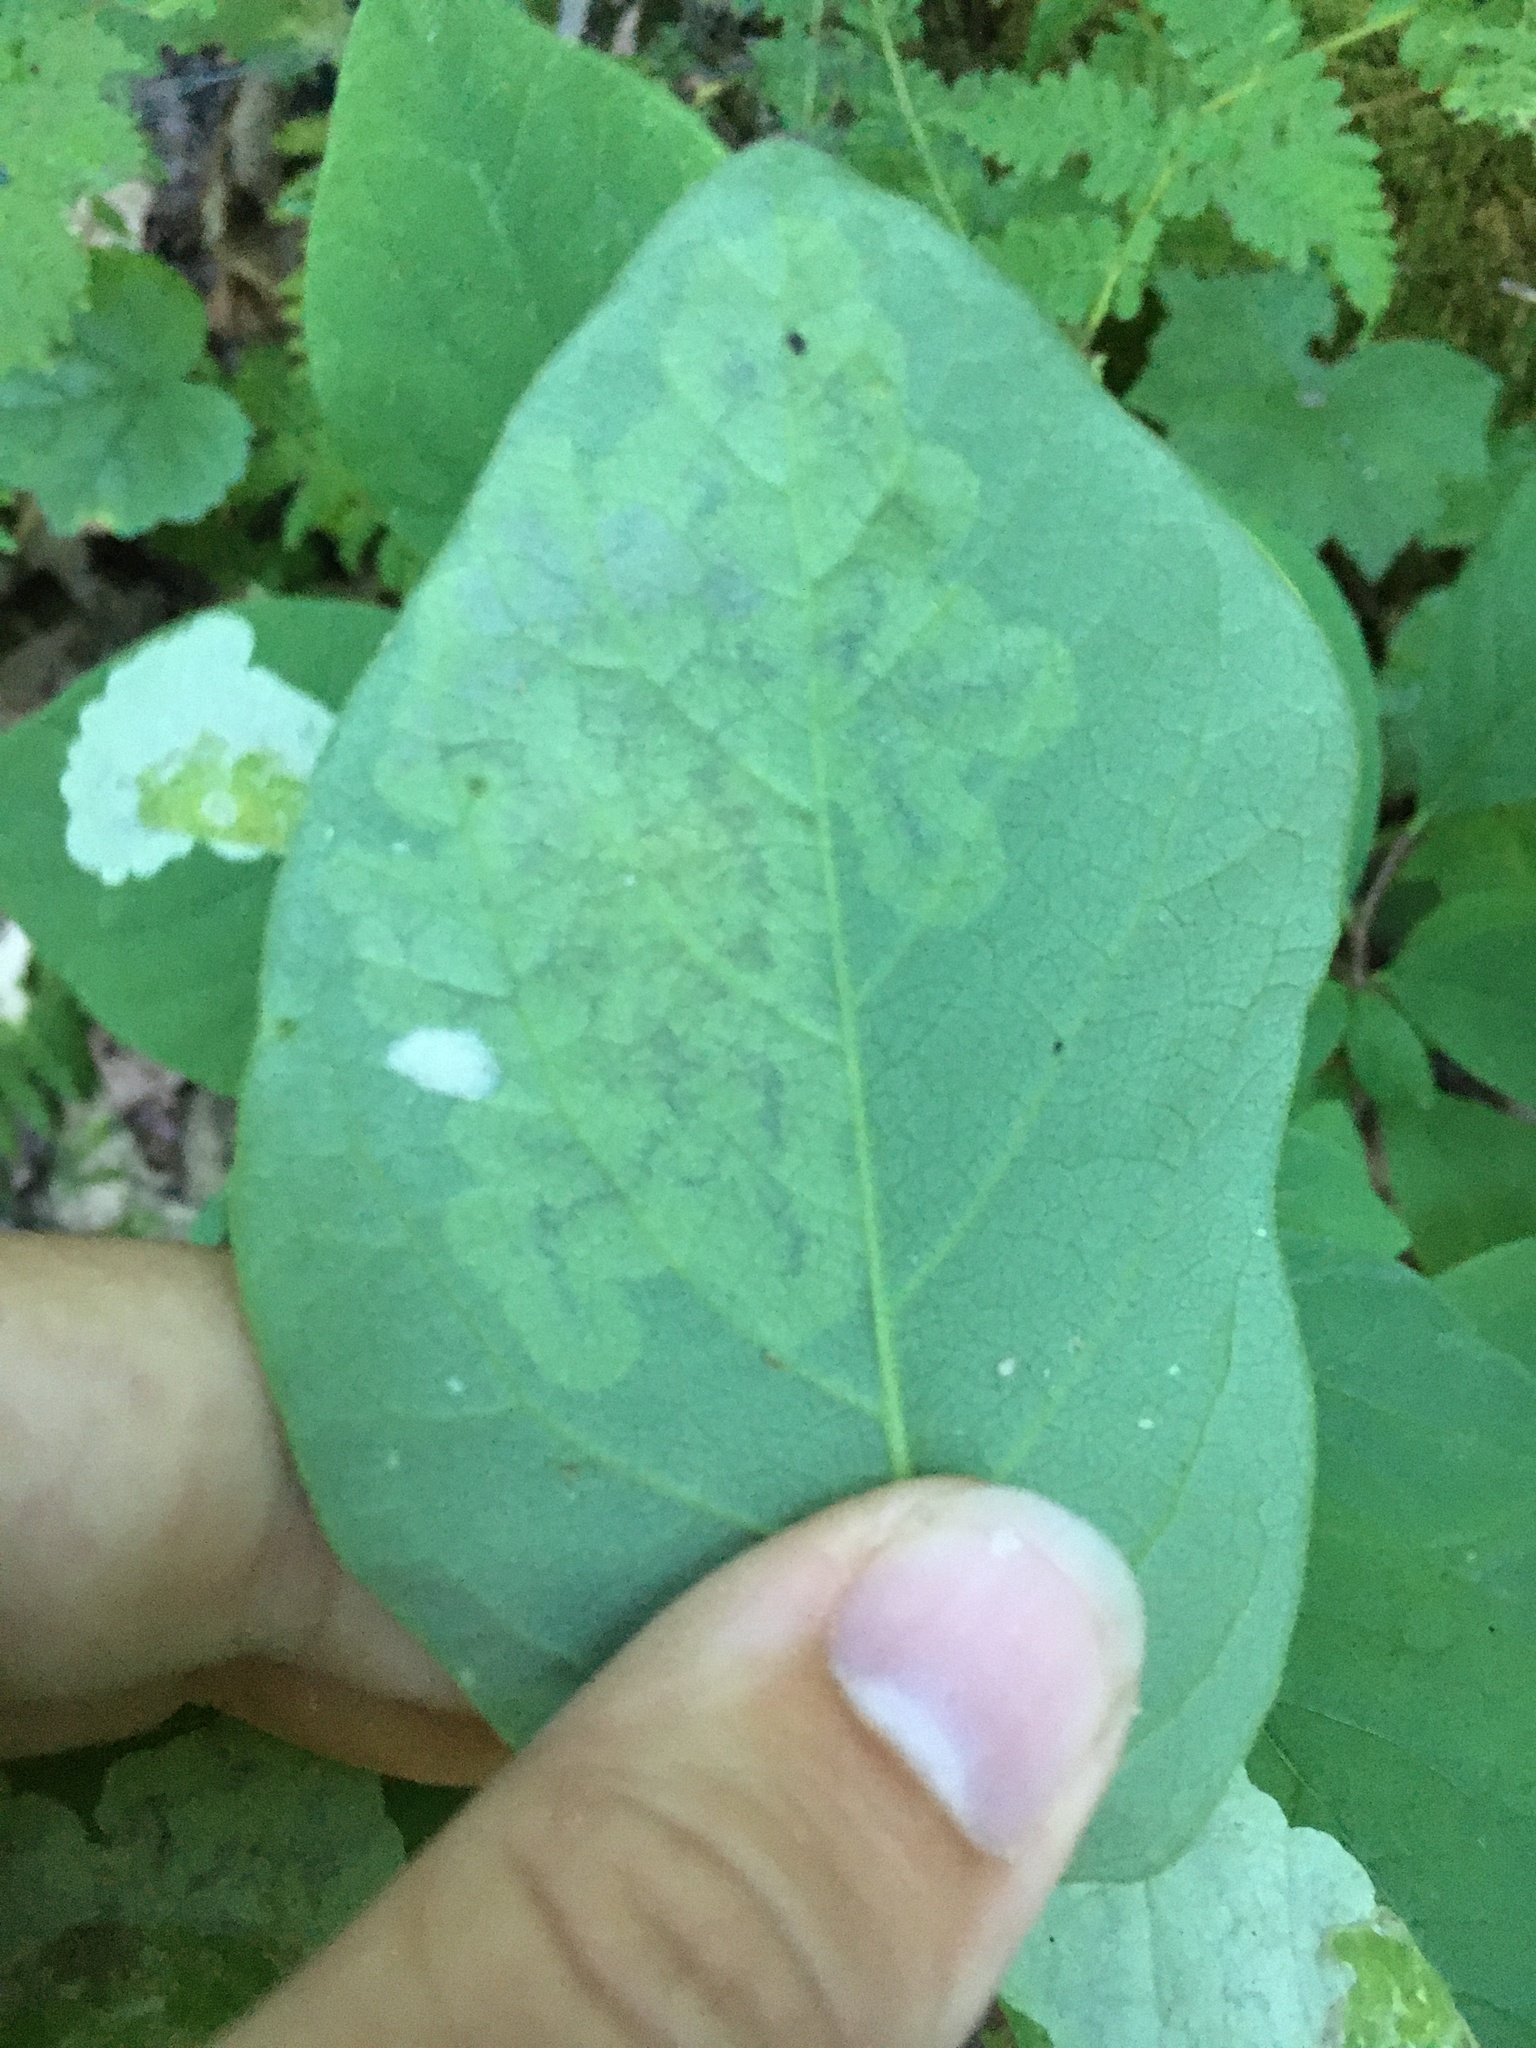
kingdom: Animalia
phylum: Arthropoda
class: Insecta
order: Lepidoptera
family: Gracillariidae
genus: Leucanthiza
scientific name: Leucanthiza dircella
